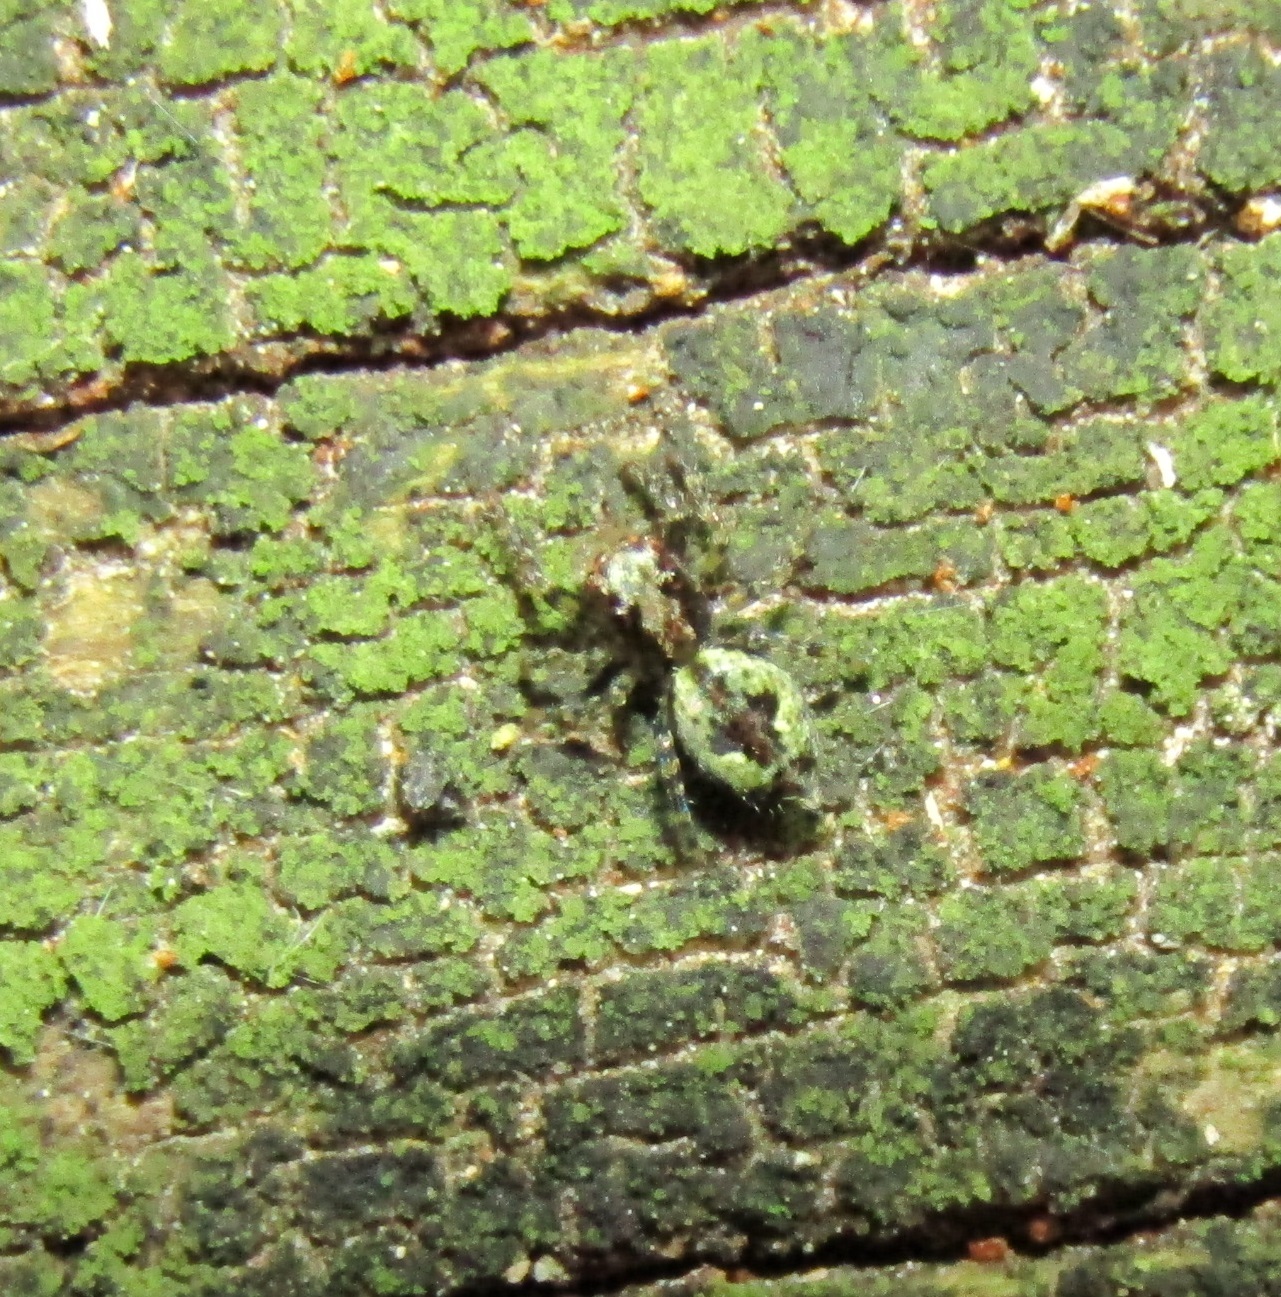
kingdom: Animalia
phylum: Arthropoda
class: Arachnida
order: Araneae
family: Salticidae
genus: Hinewaia
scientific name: Hinewaia embolica
